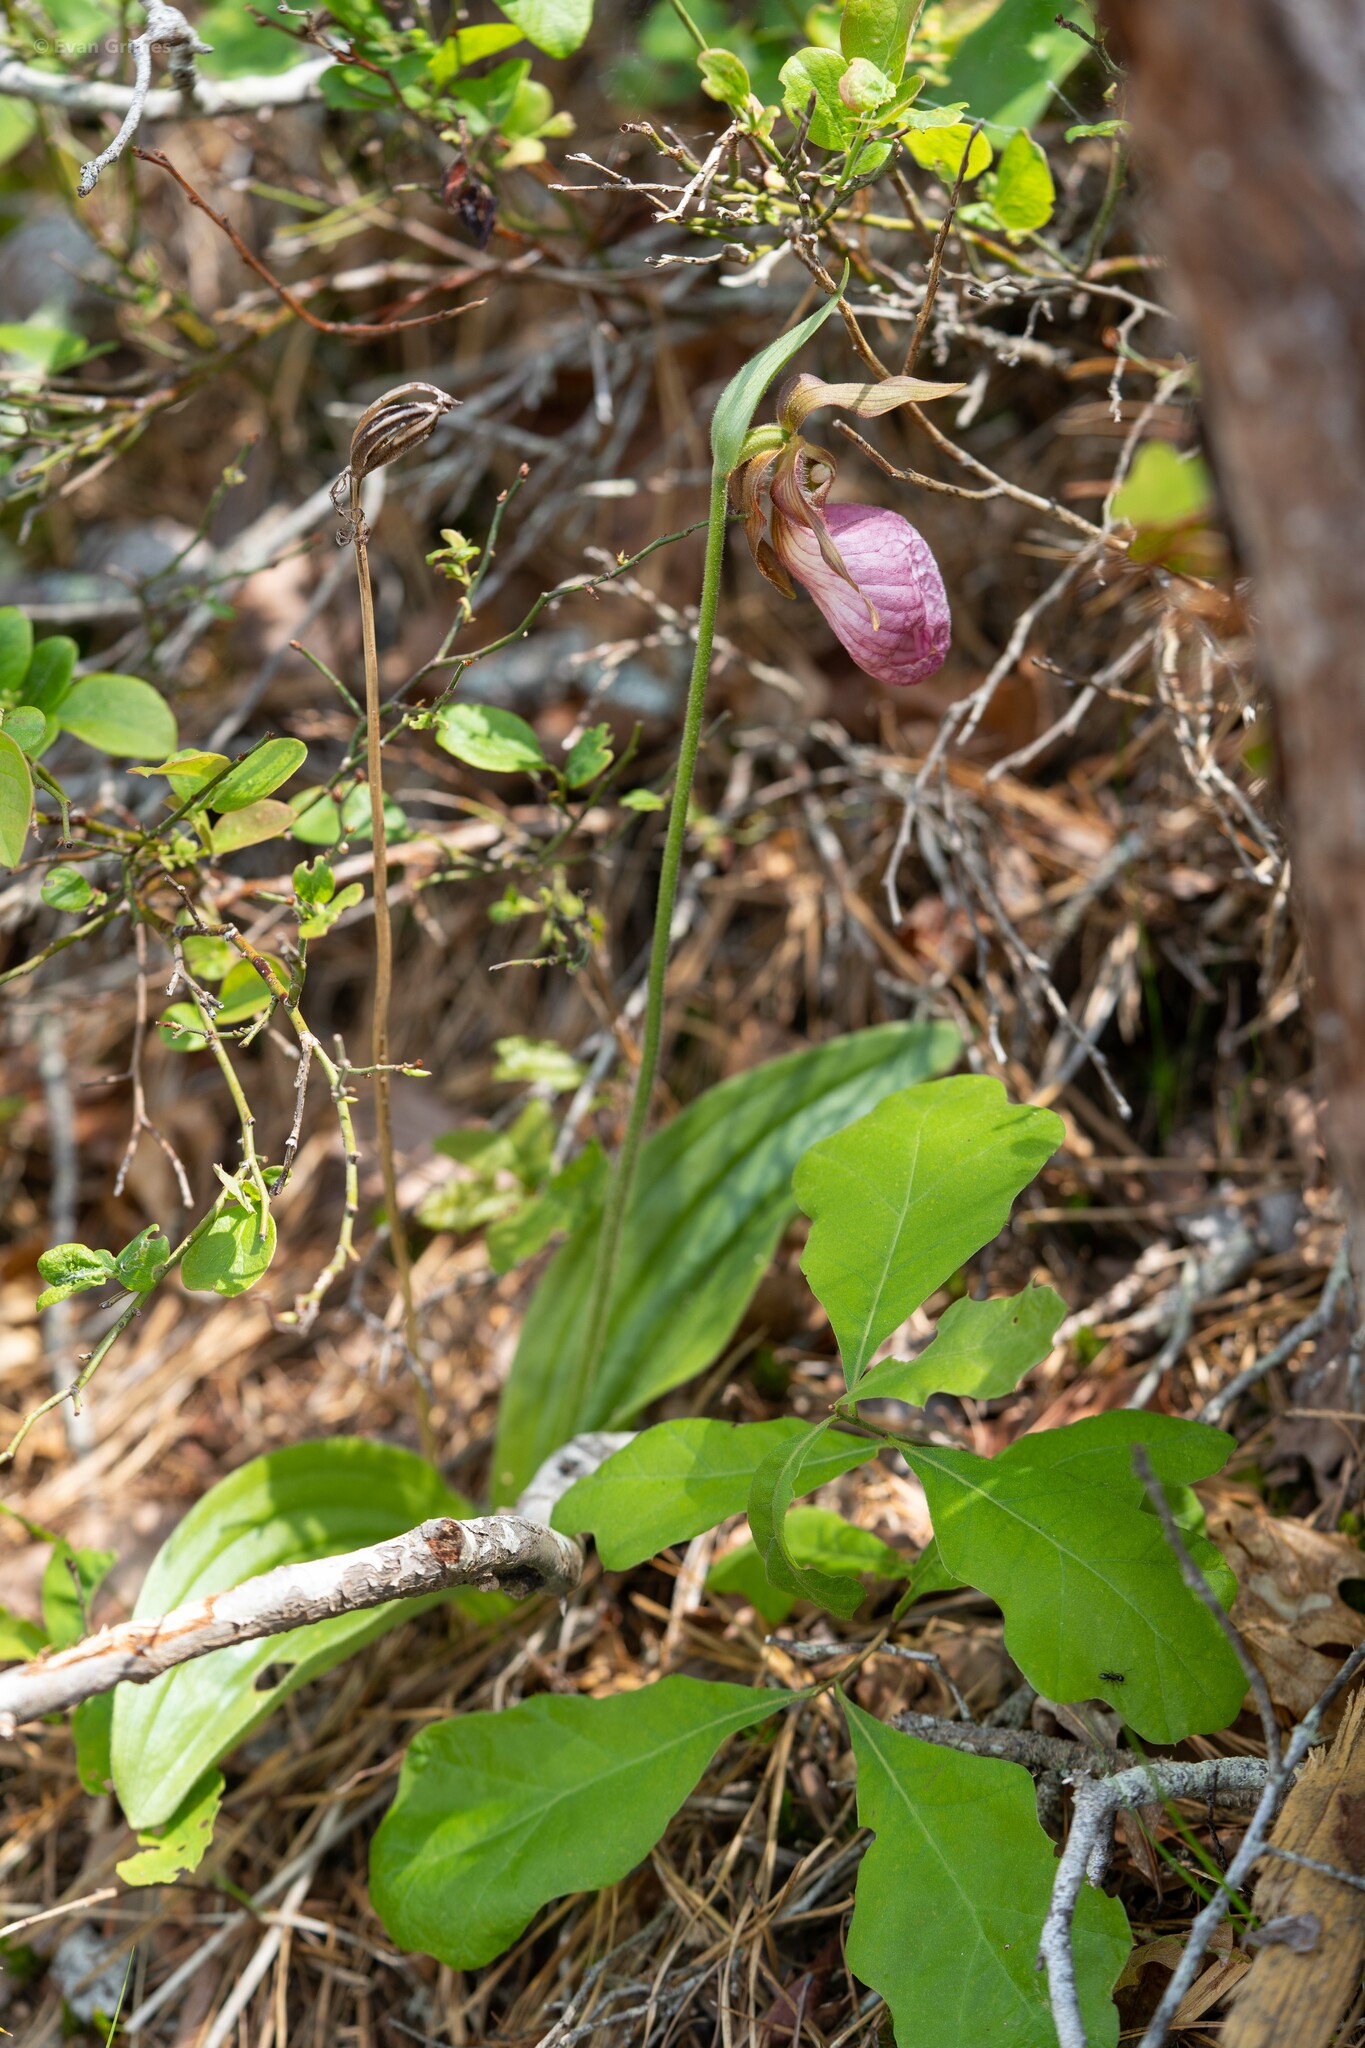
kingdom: Plantae
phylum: Tracheophyta
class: Liliopsida
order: Asparagales
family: Orchidaceae
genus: Cypripedium
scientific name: Cypripedium acaule
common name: Pink lady's-slipper
